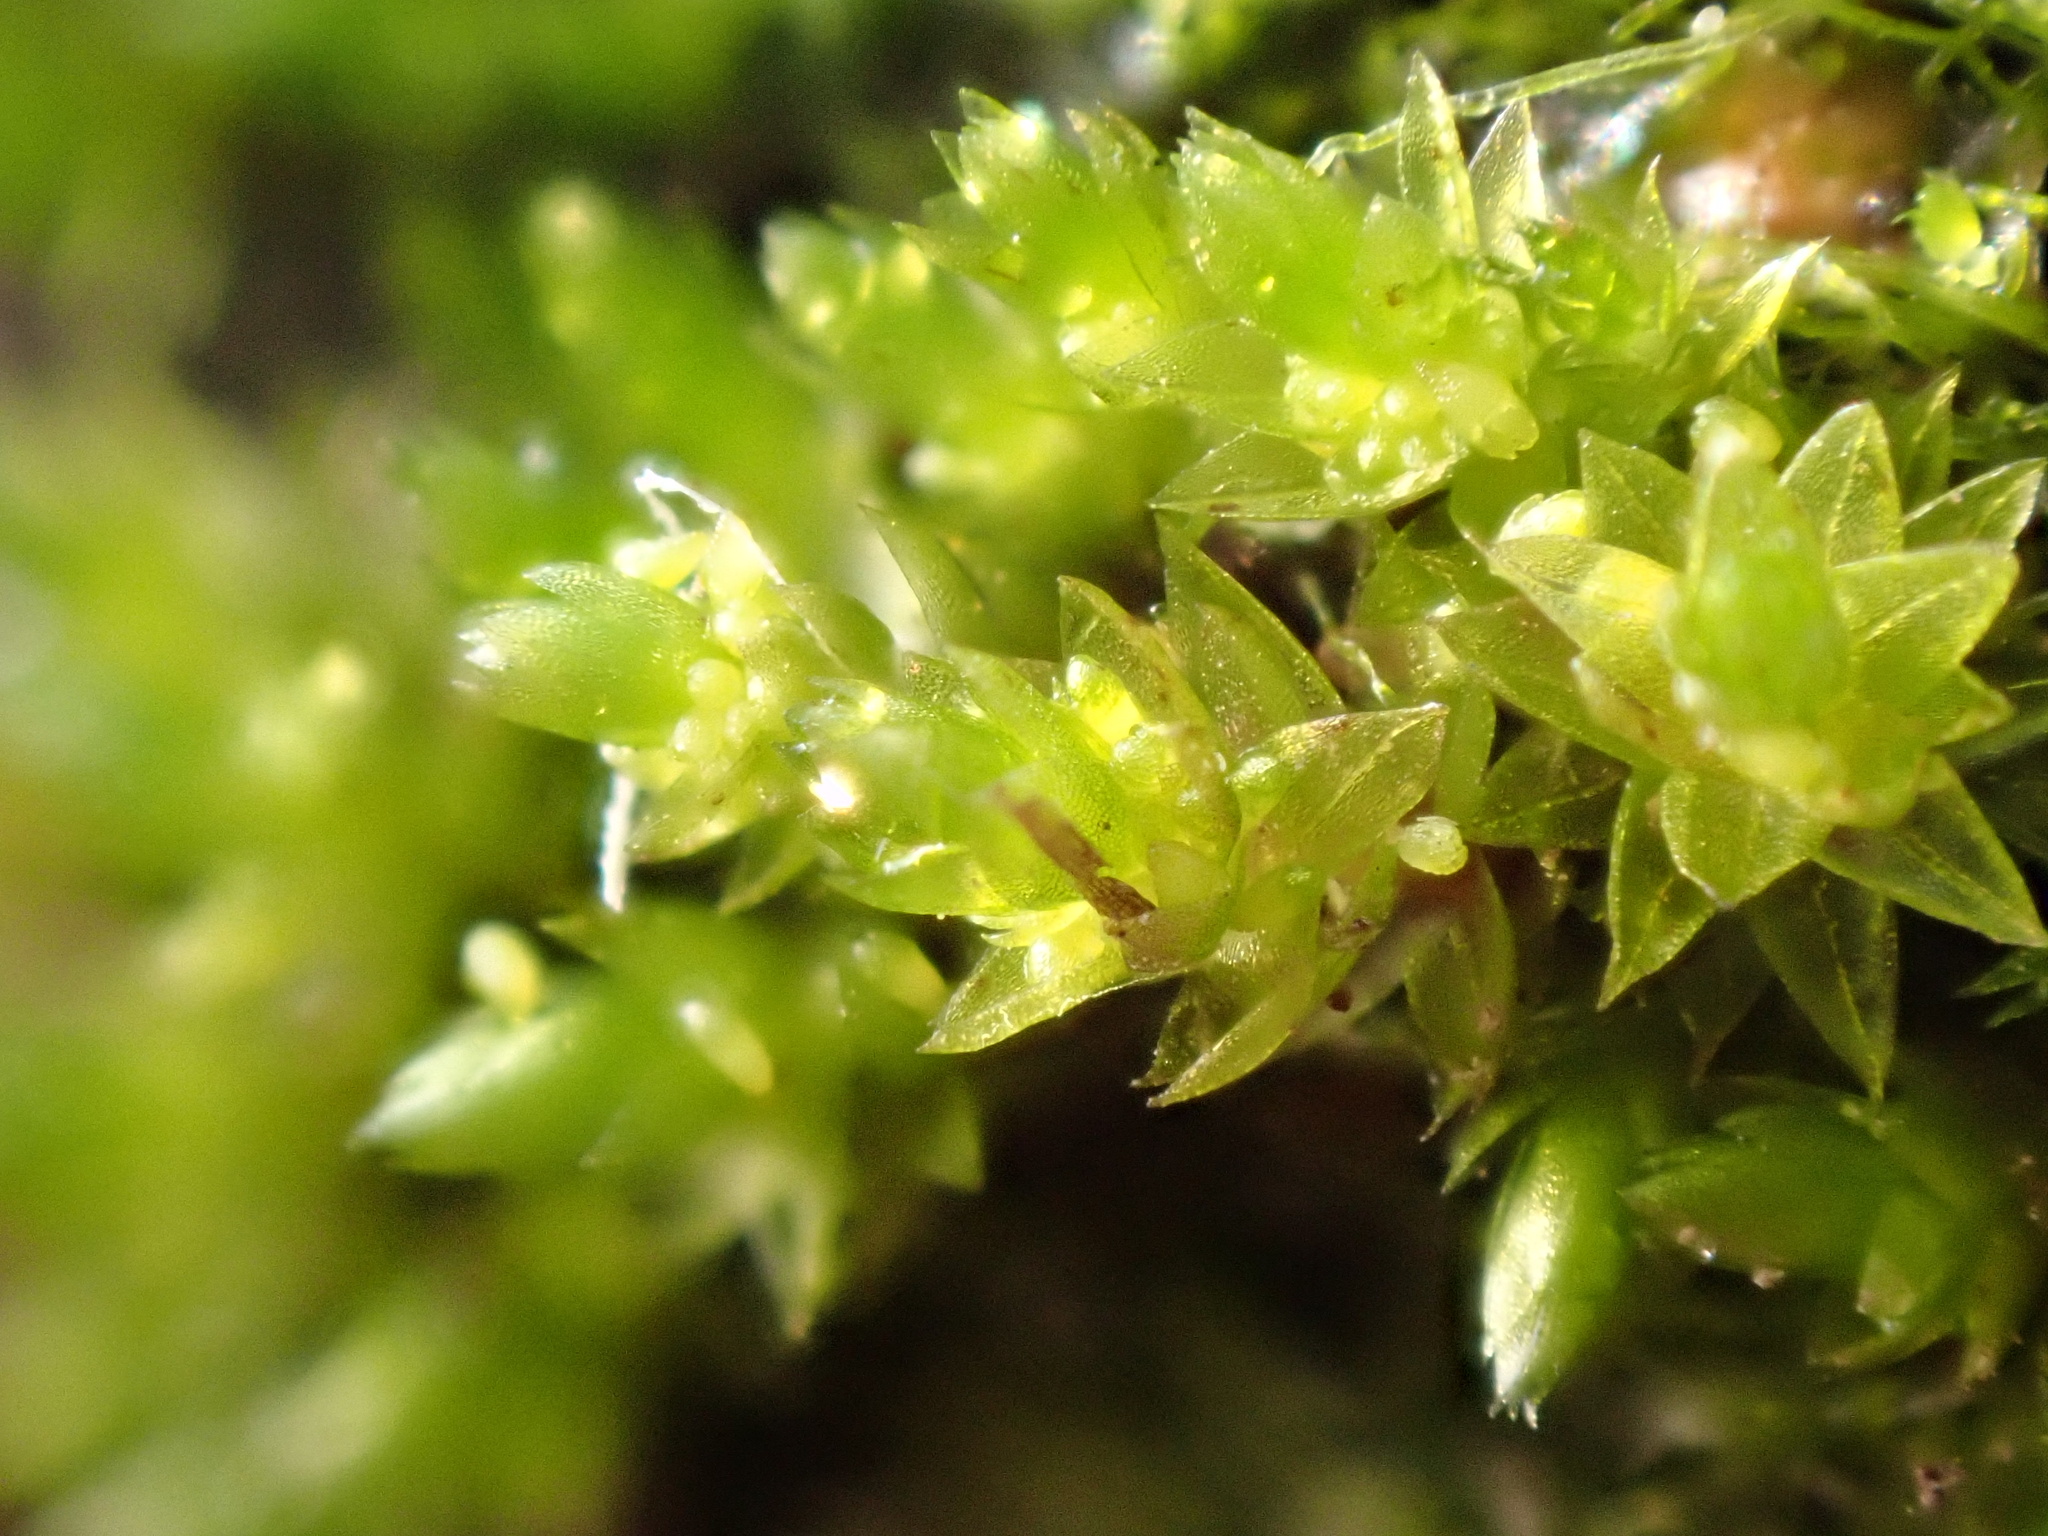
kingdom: Plantae
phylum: Bryophyta
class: Bryopsida
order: Bryales
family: Bryaceae
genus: Gemmabryum
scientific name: Gemmabryum
